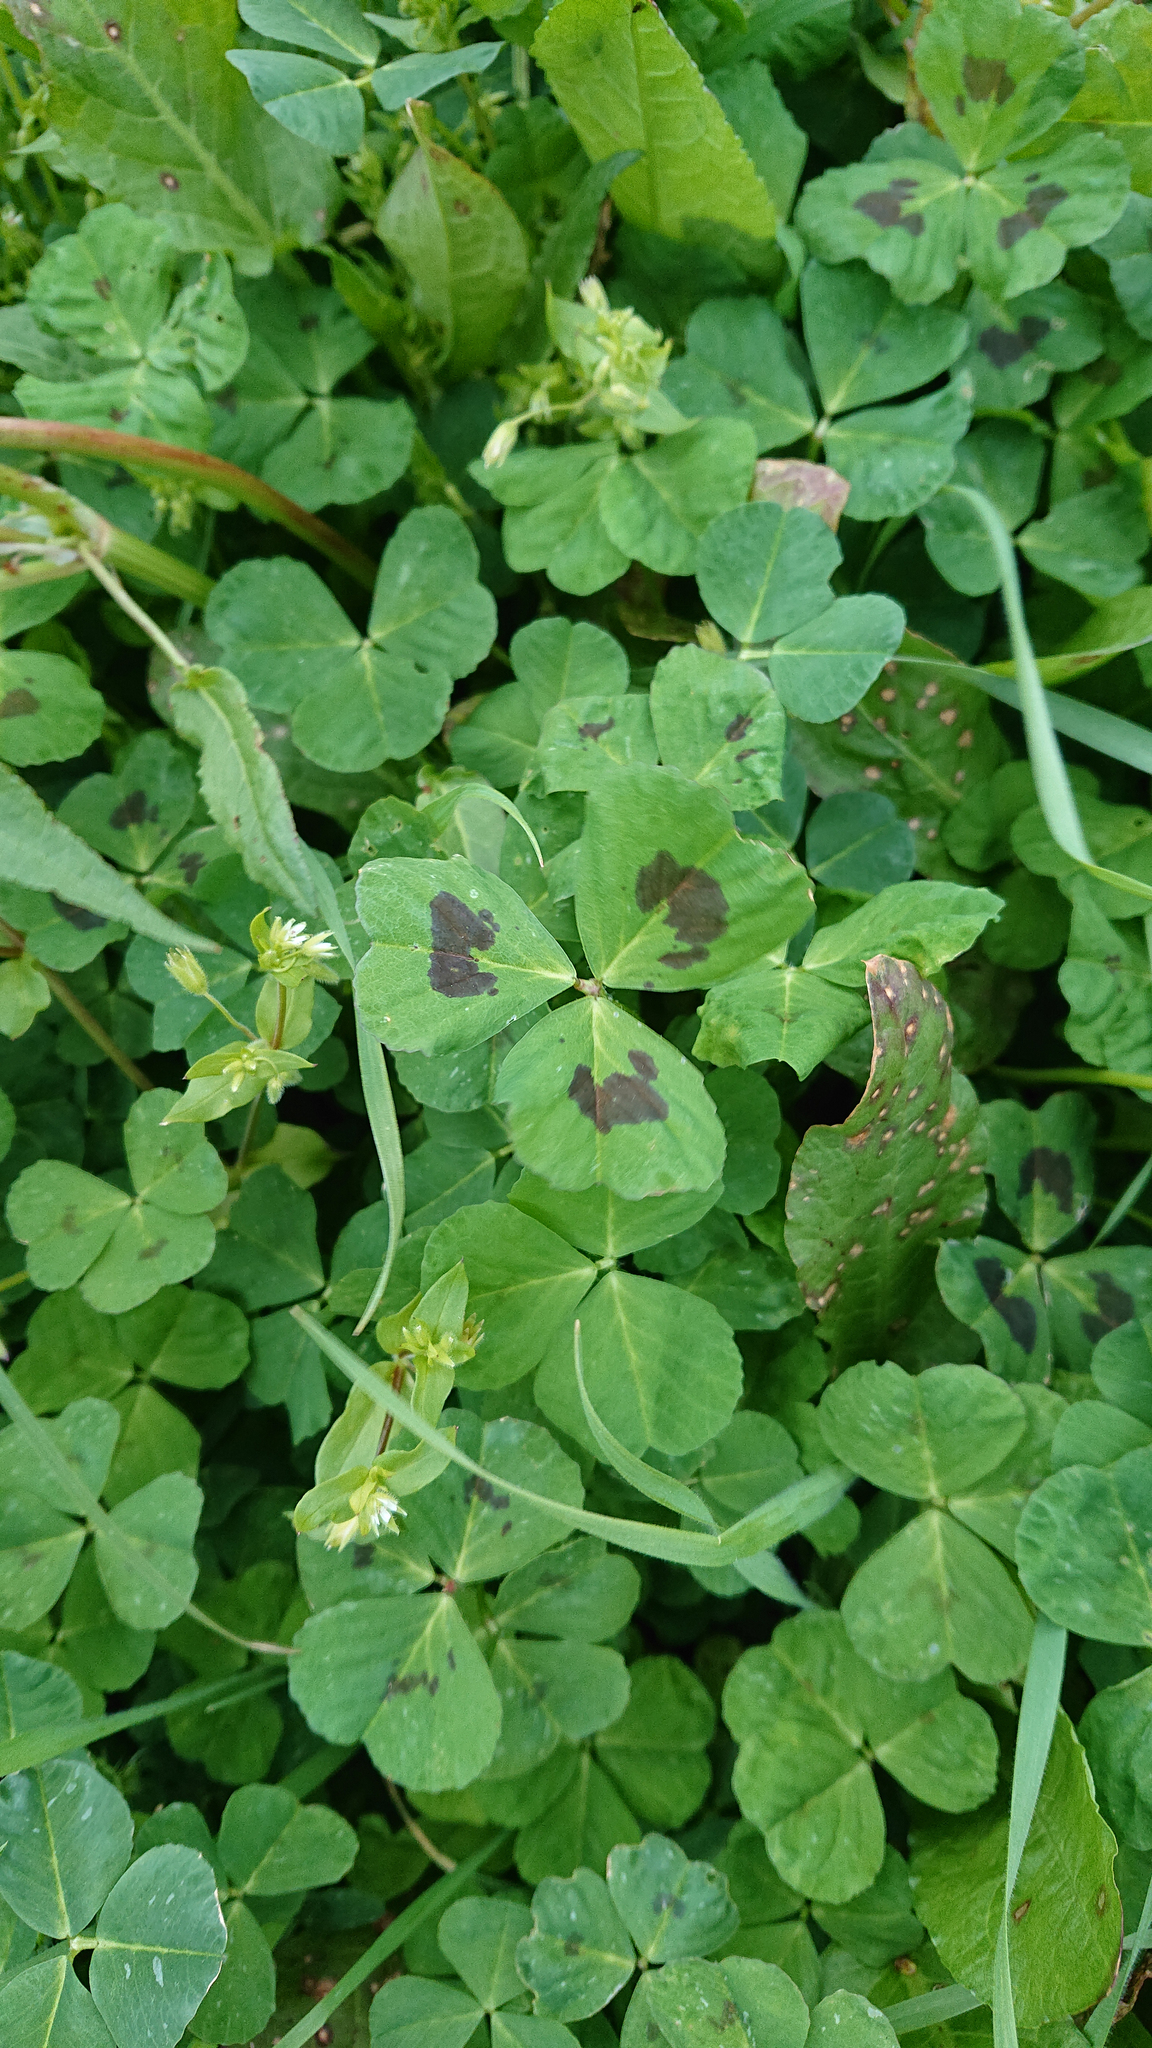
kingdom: Plantae
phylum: Tracheophyta
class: Magnoliopsida
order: Fabales
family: Fabaceae
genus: Medicago
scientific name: Medicago arabica
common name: Spotted medick
